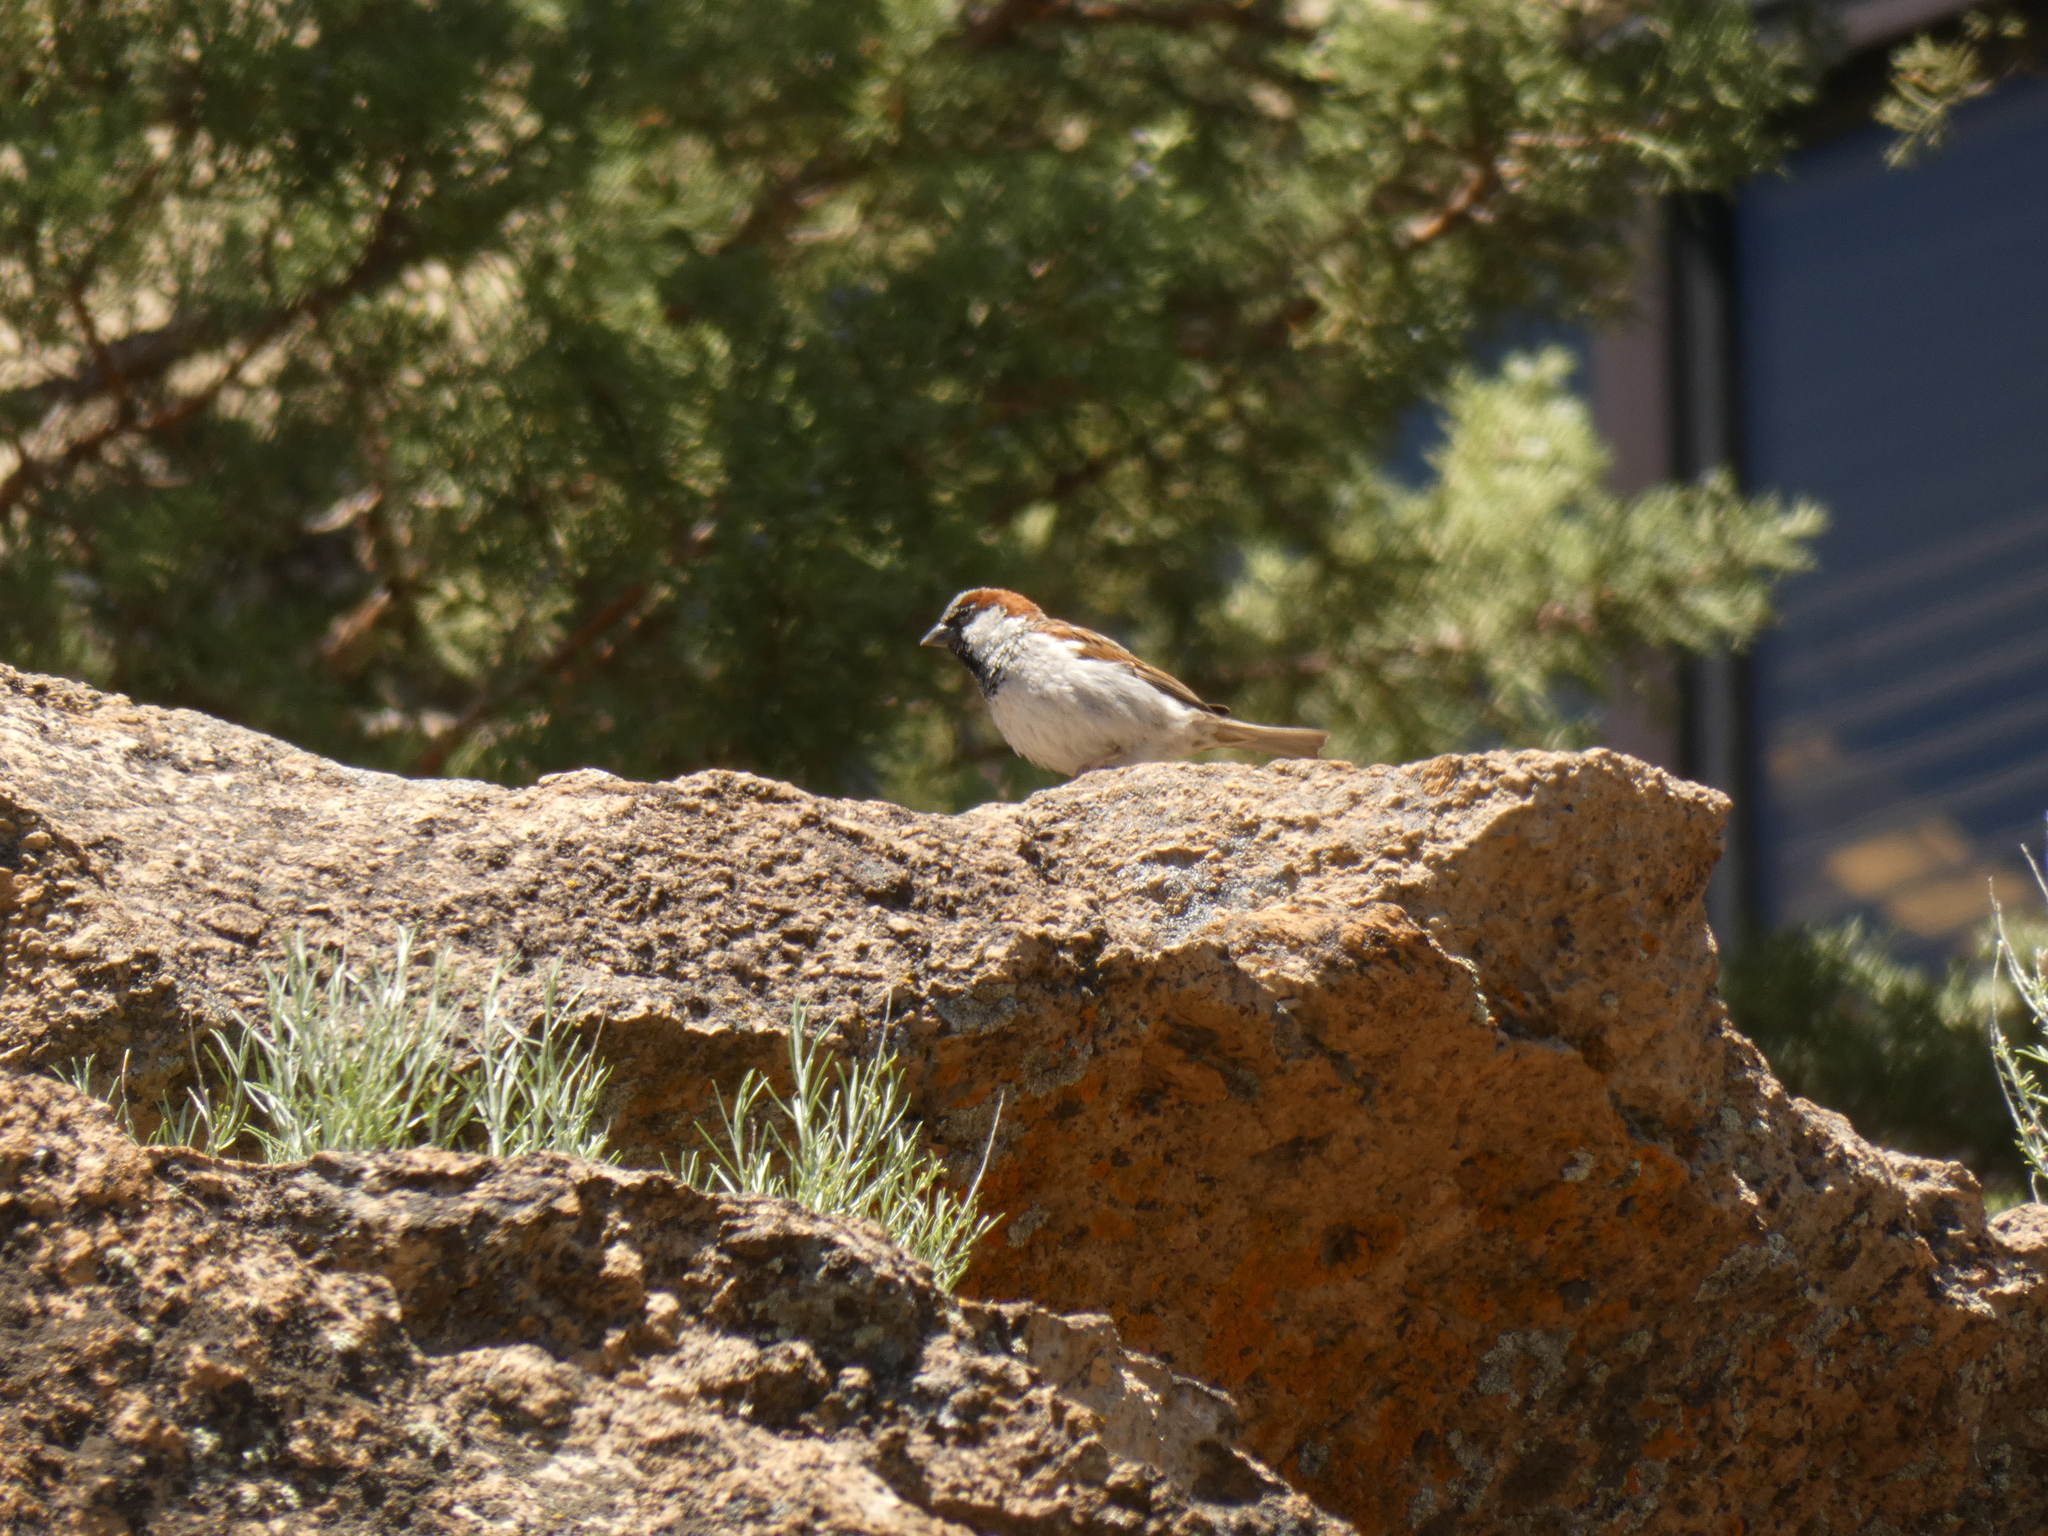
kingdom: Animalia
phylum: Chordata
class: Aves
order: Passeriformes
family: Passeridae
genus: Passer
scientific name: Passer domesticus
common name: House sparrow
